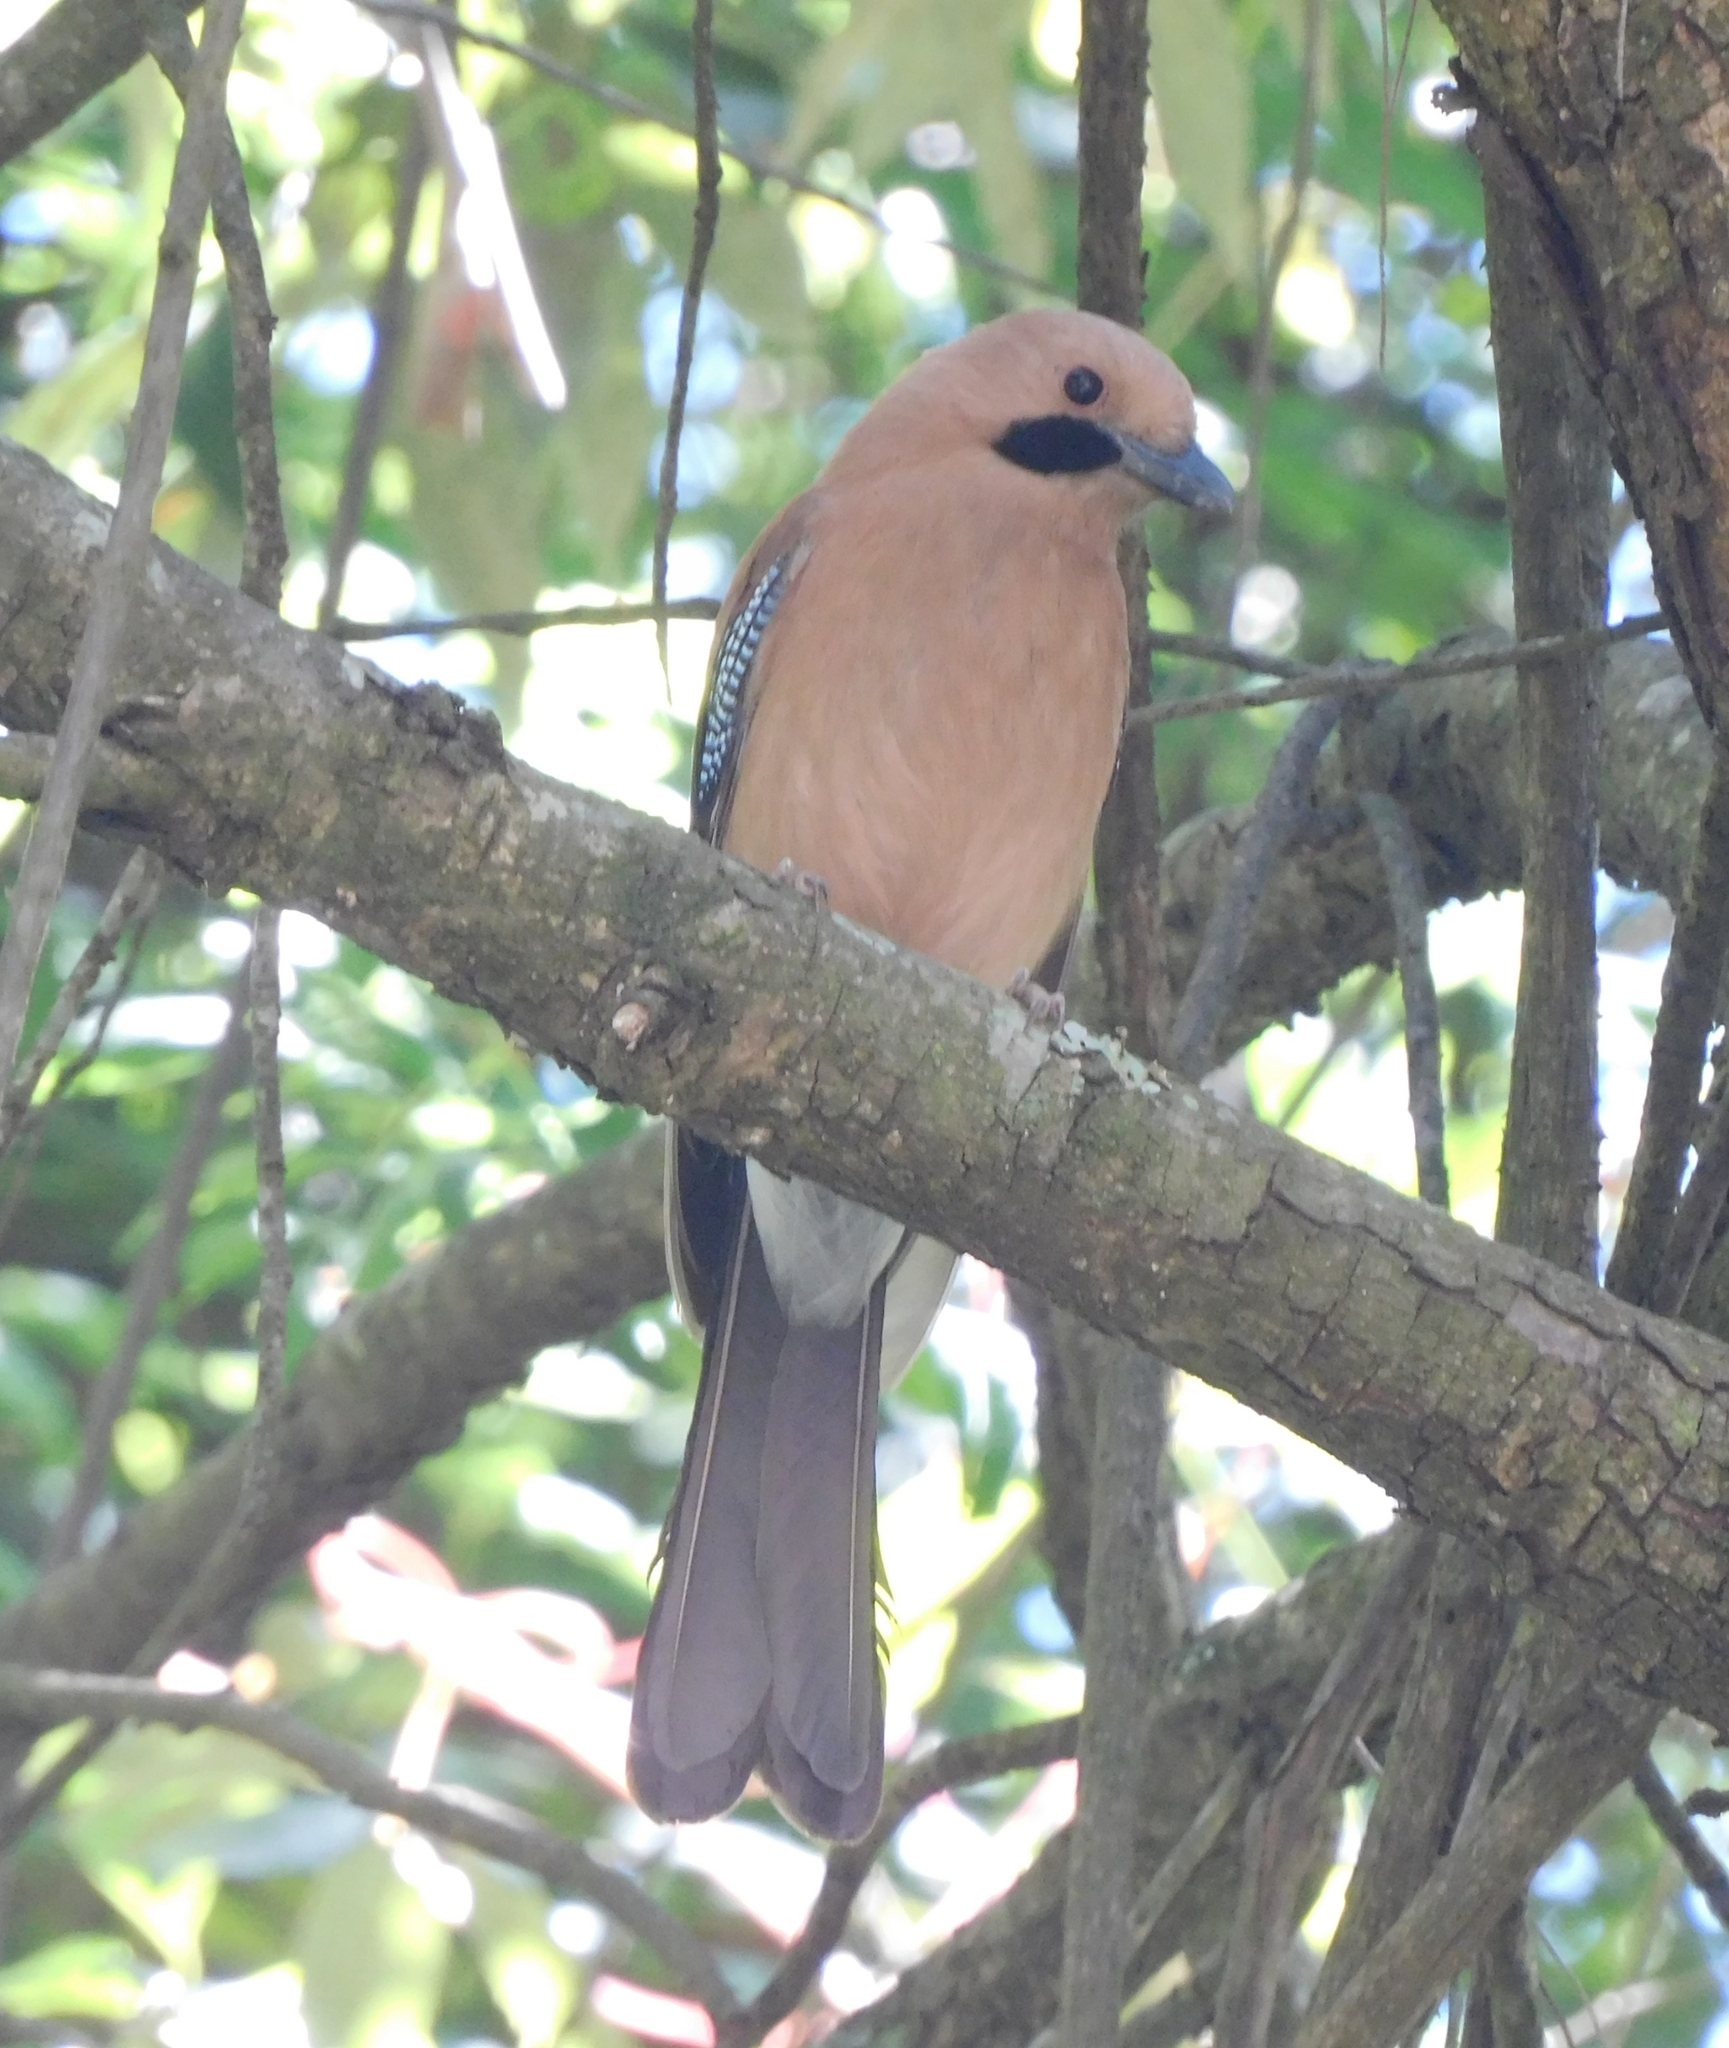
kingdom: Animalia
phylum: Chordata
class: Aves
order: Passeriformes
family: Corvidae
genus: Garrulus
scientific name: Garrulus glandarius
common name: Eurasian jay
